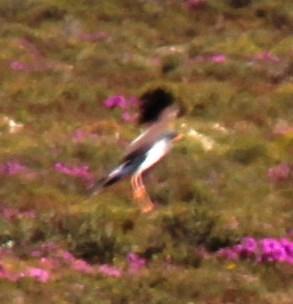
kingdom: Animalia
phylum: Chordata
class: Aves
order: Accipitriformes
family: Accipitridae
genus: Melierax
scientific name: Melierax canorus
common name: Pale chanting-goshawk
